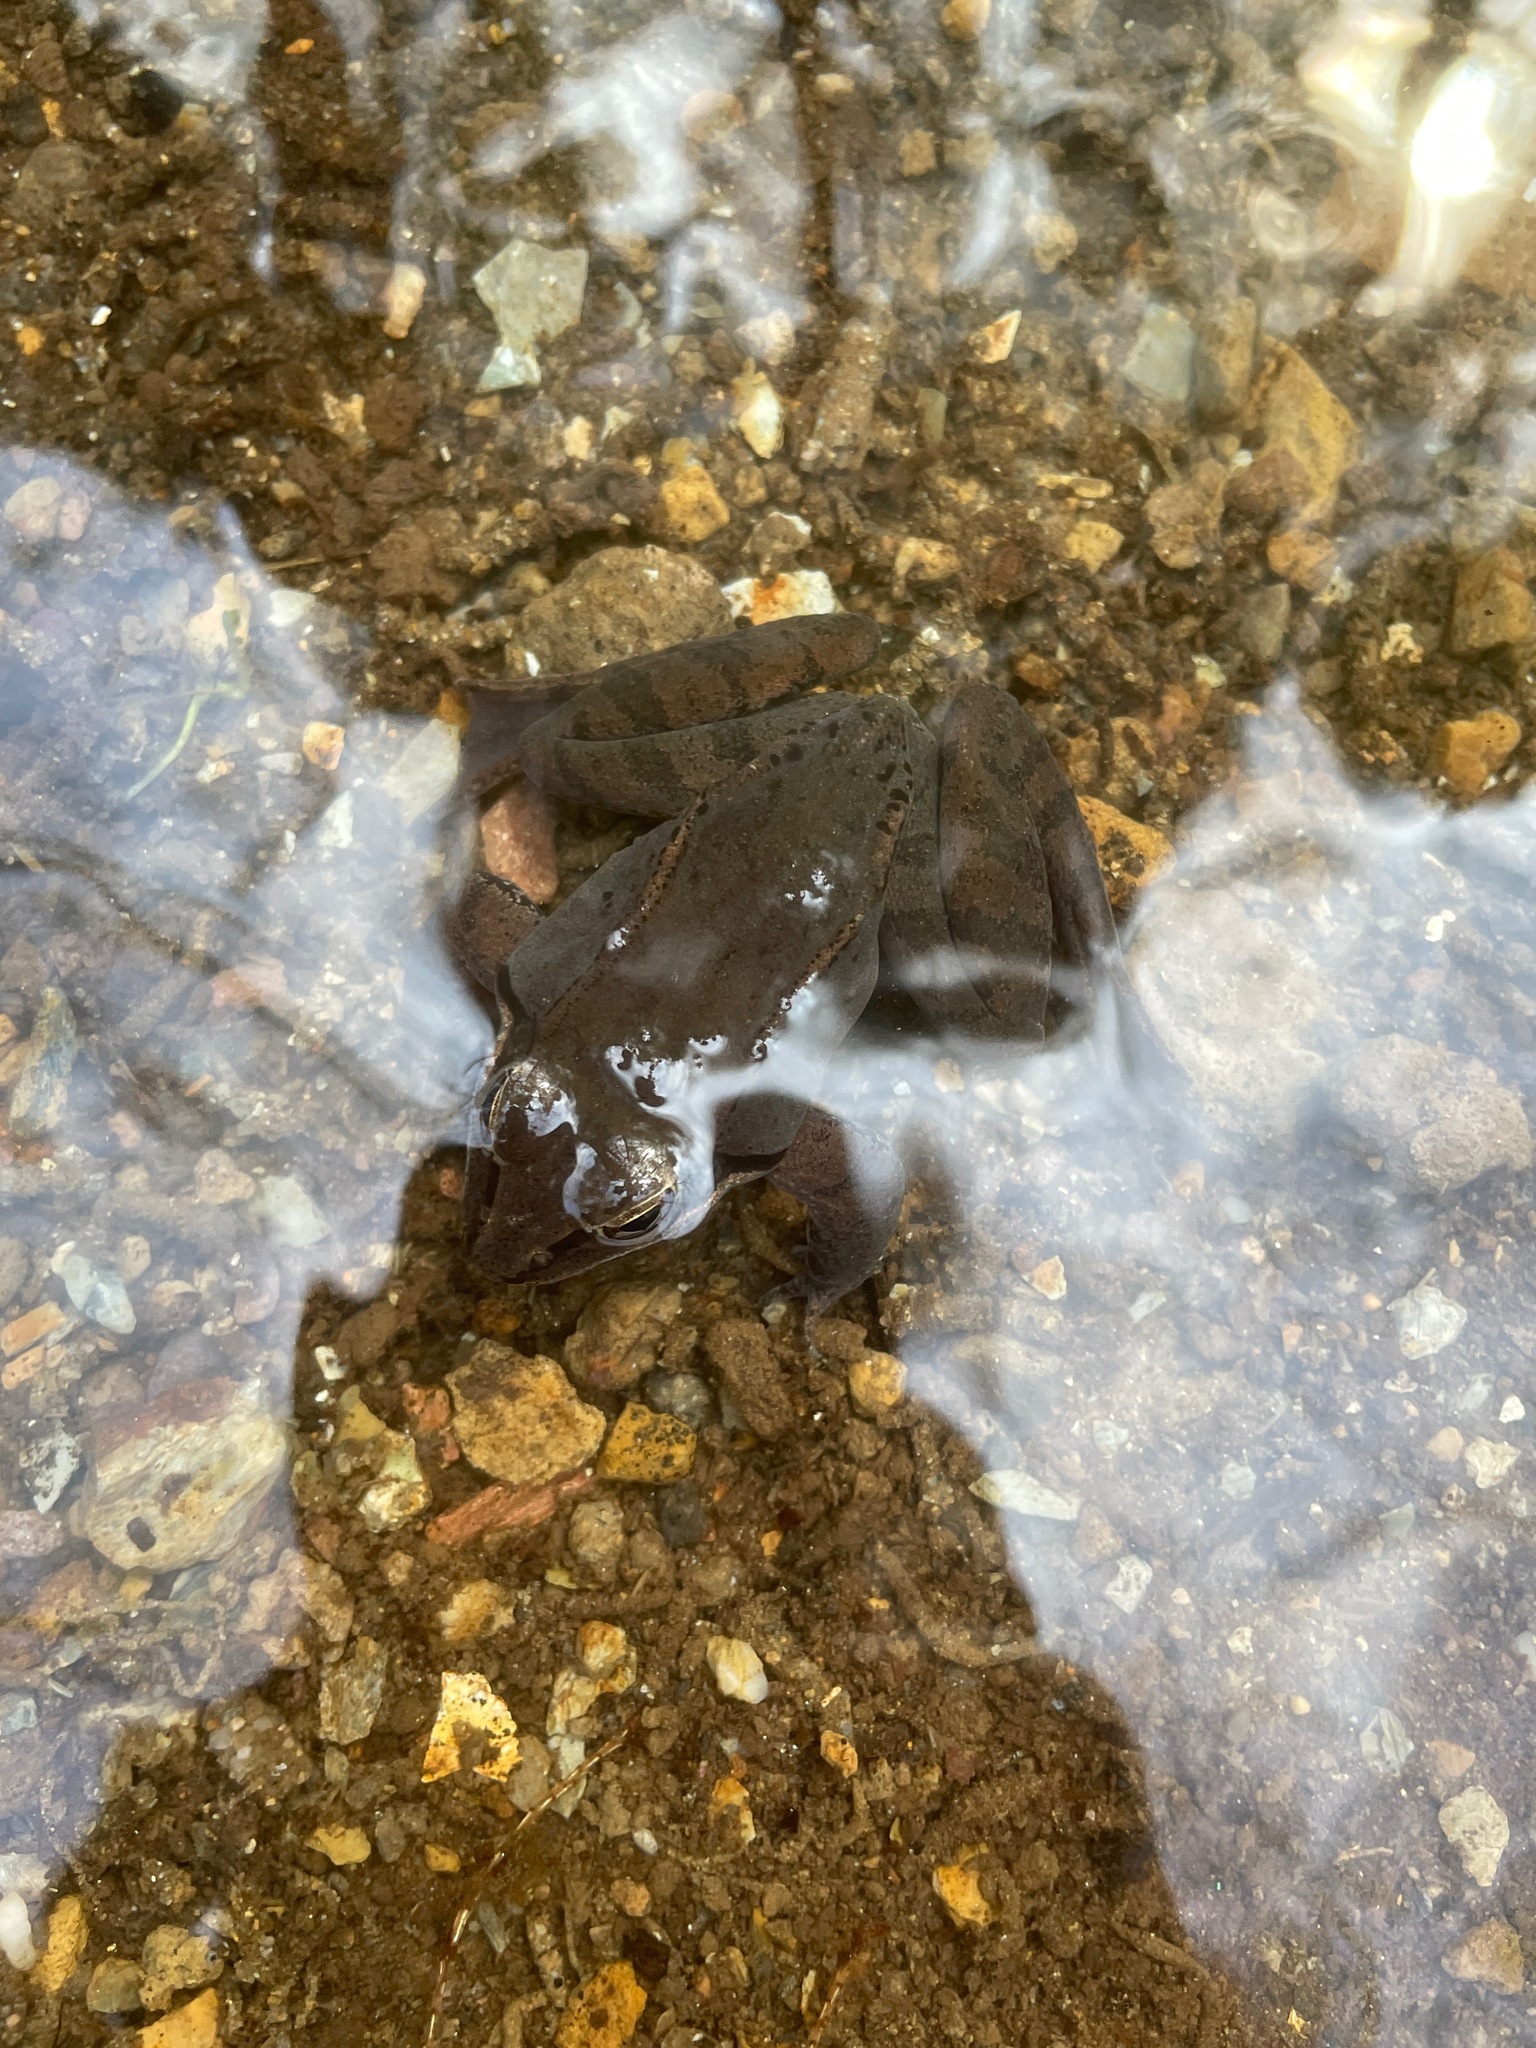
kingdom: Animalia
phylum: Chordata
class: Amphibia
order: Anura
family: Ranidae
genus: Lithobates
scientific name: Lithobates sylvaticus
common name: Wood frog
